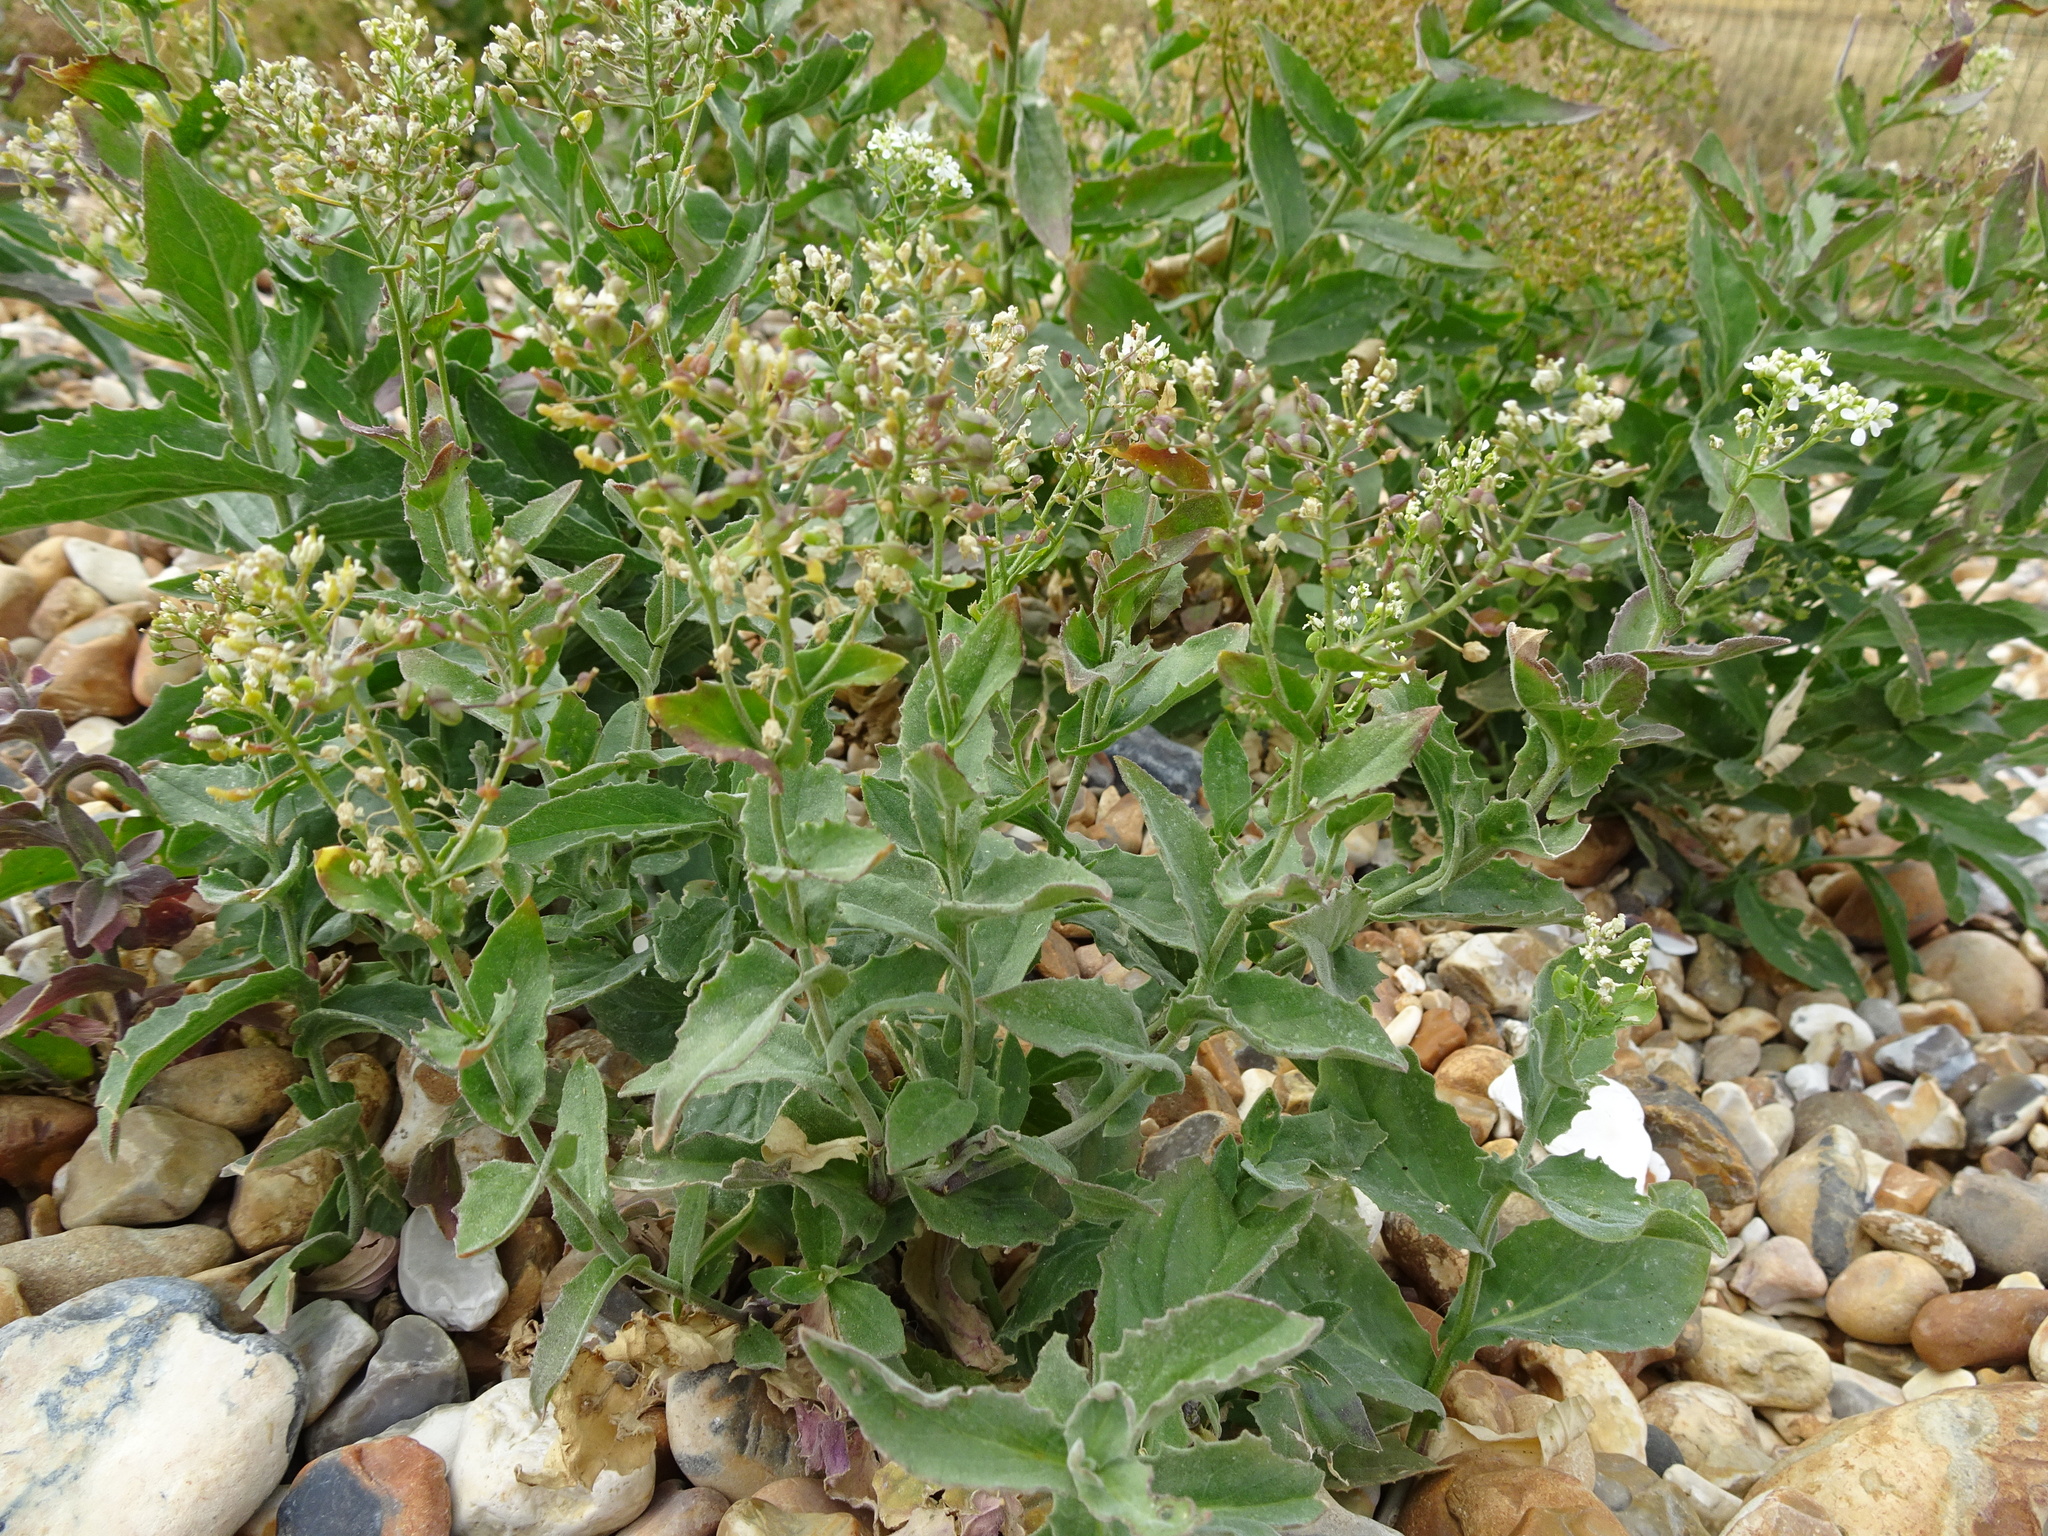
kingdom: Plantae
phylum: Tracheophyta
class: Magnoliopsida
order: Brassicales
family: Brassicaceae
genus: Lepidium
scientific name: Lepidium draba
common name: Hoary cress
